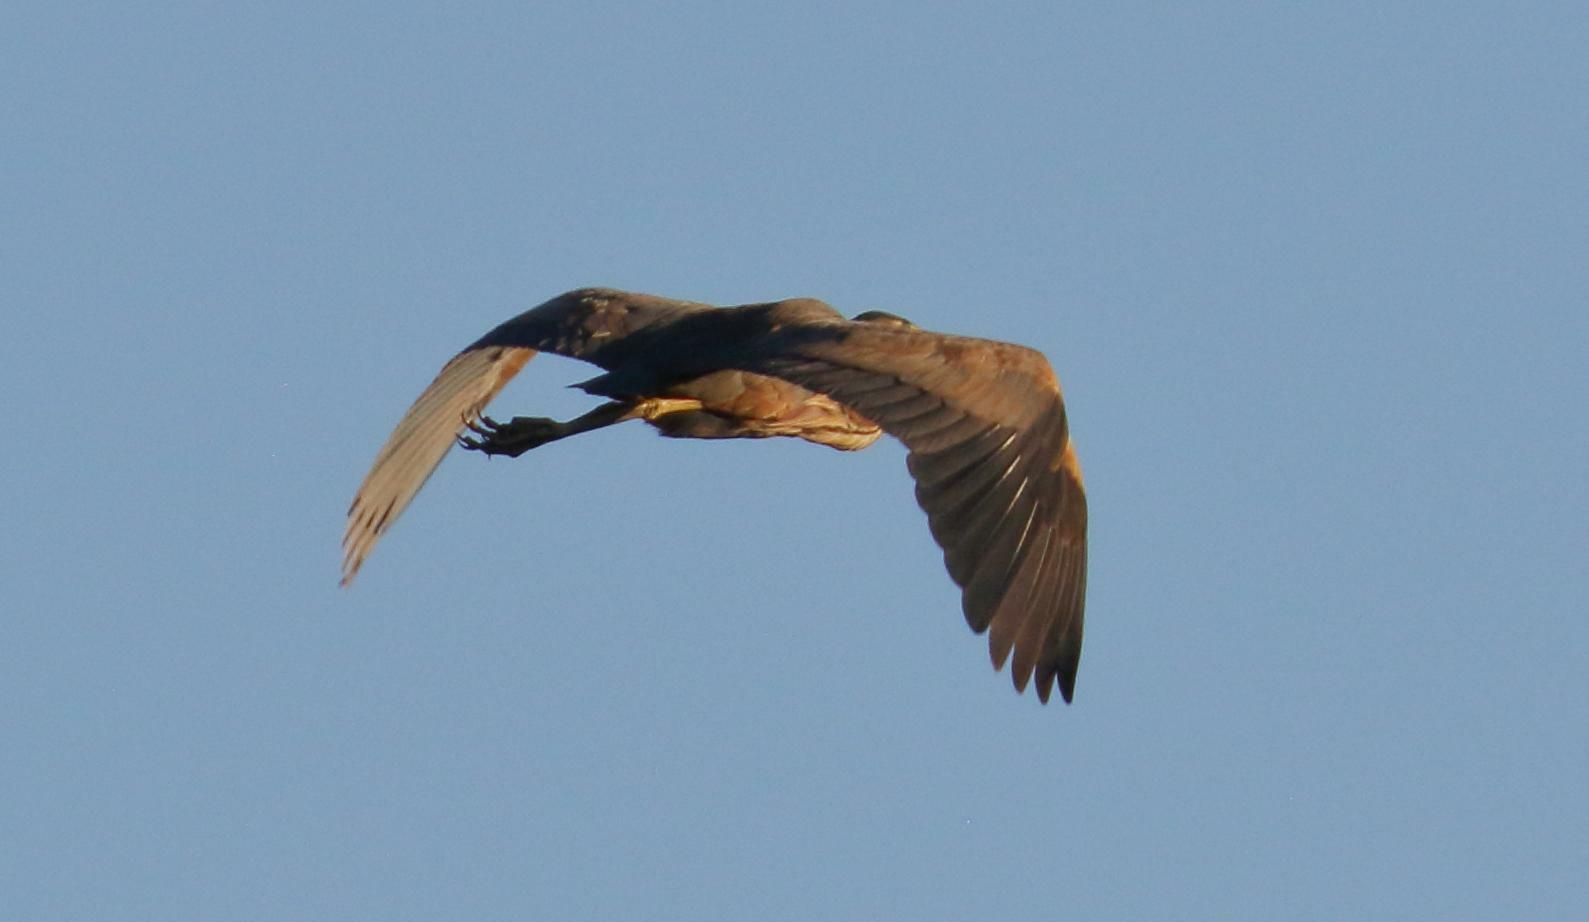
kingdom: Animalia
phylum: Chordata
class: Aves
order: Pelecaniformes
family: Ardeidae
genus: Ardea
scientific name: Ardea purpurea
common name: Purple heron
